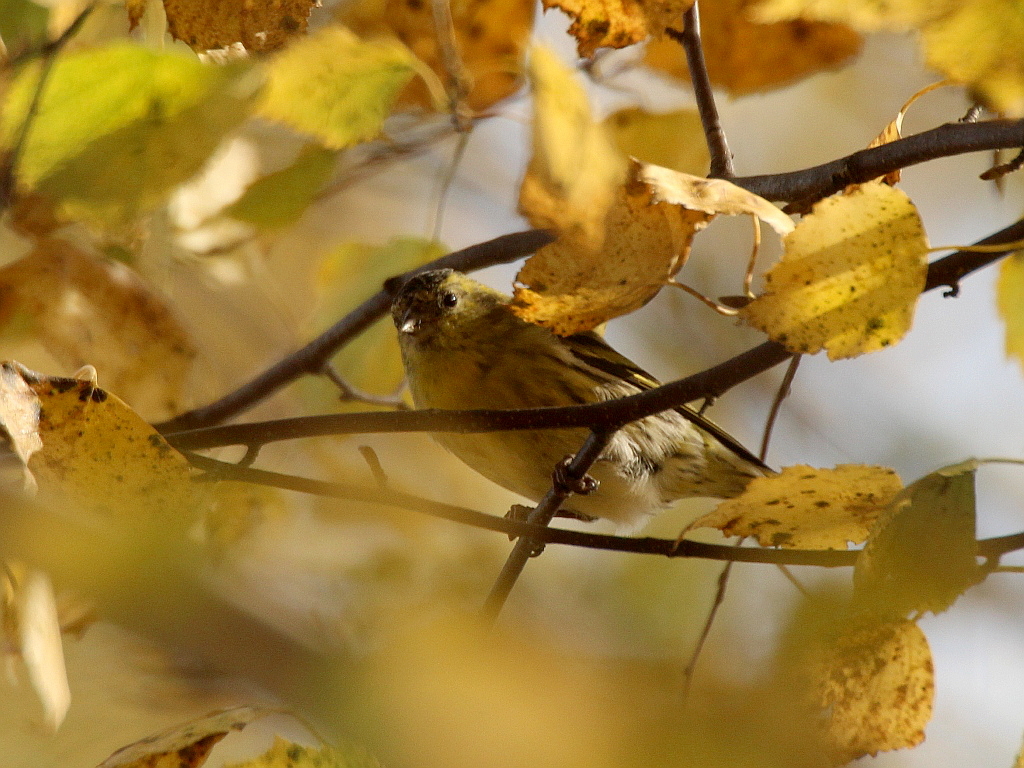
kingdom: Animalia
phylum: Chordata
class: Aves
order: Passeriformes
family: Fringillidae
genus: Spinus
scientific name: Spinus spinus
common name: Eurasian siskin
